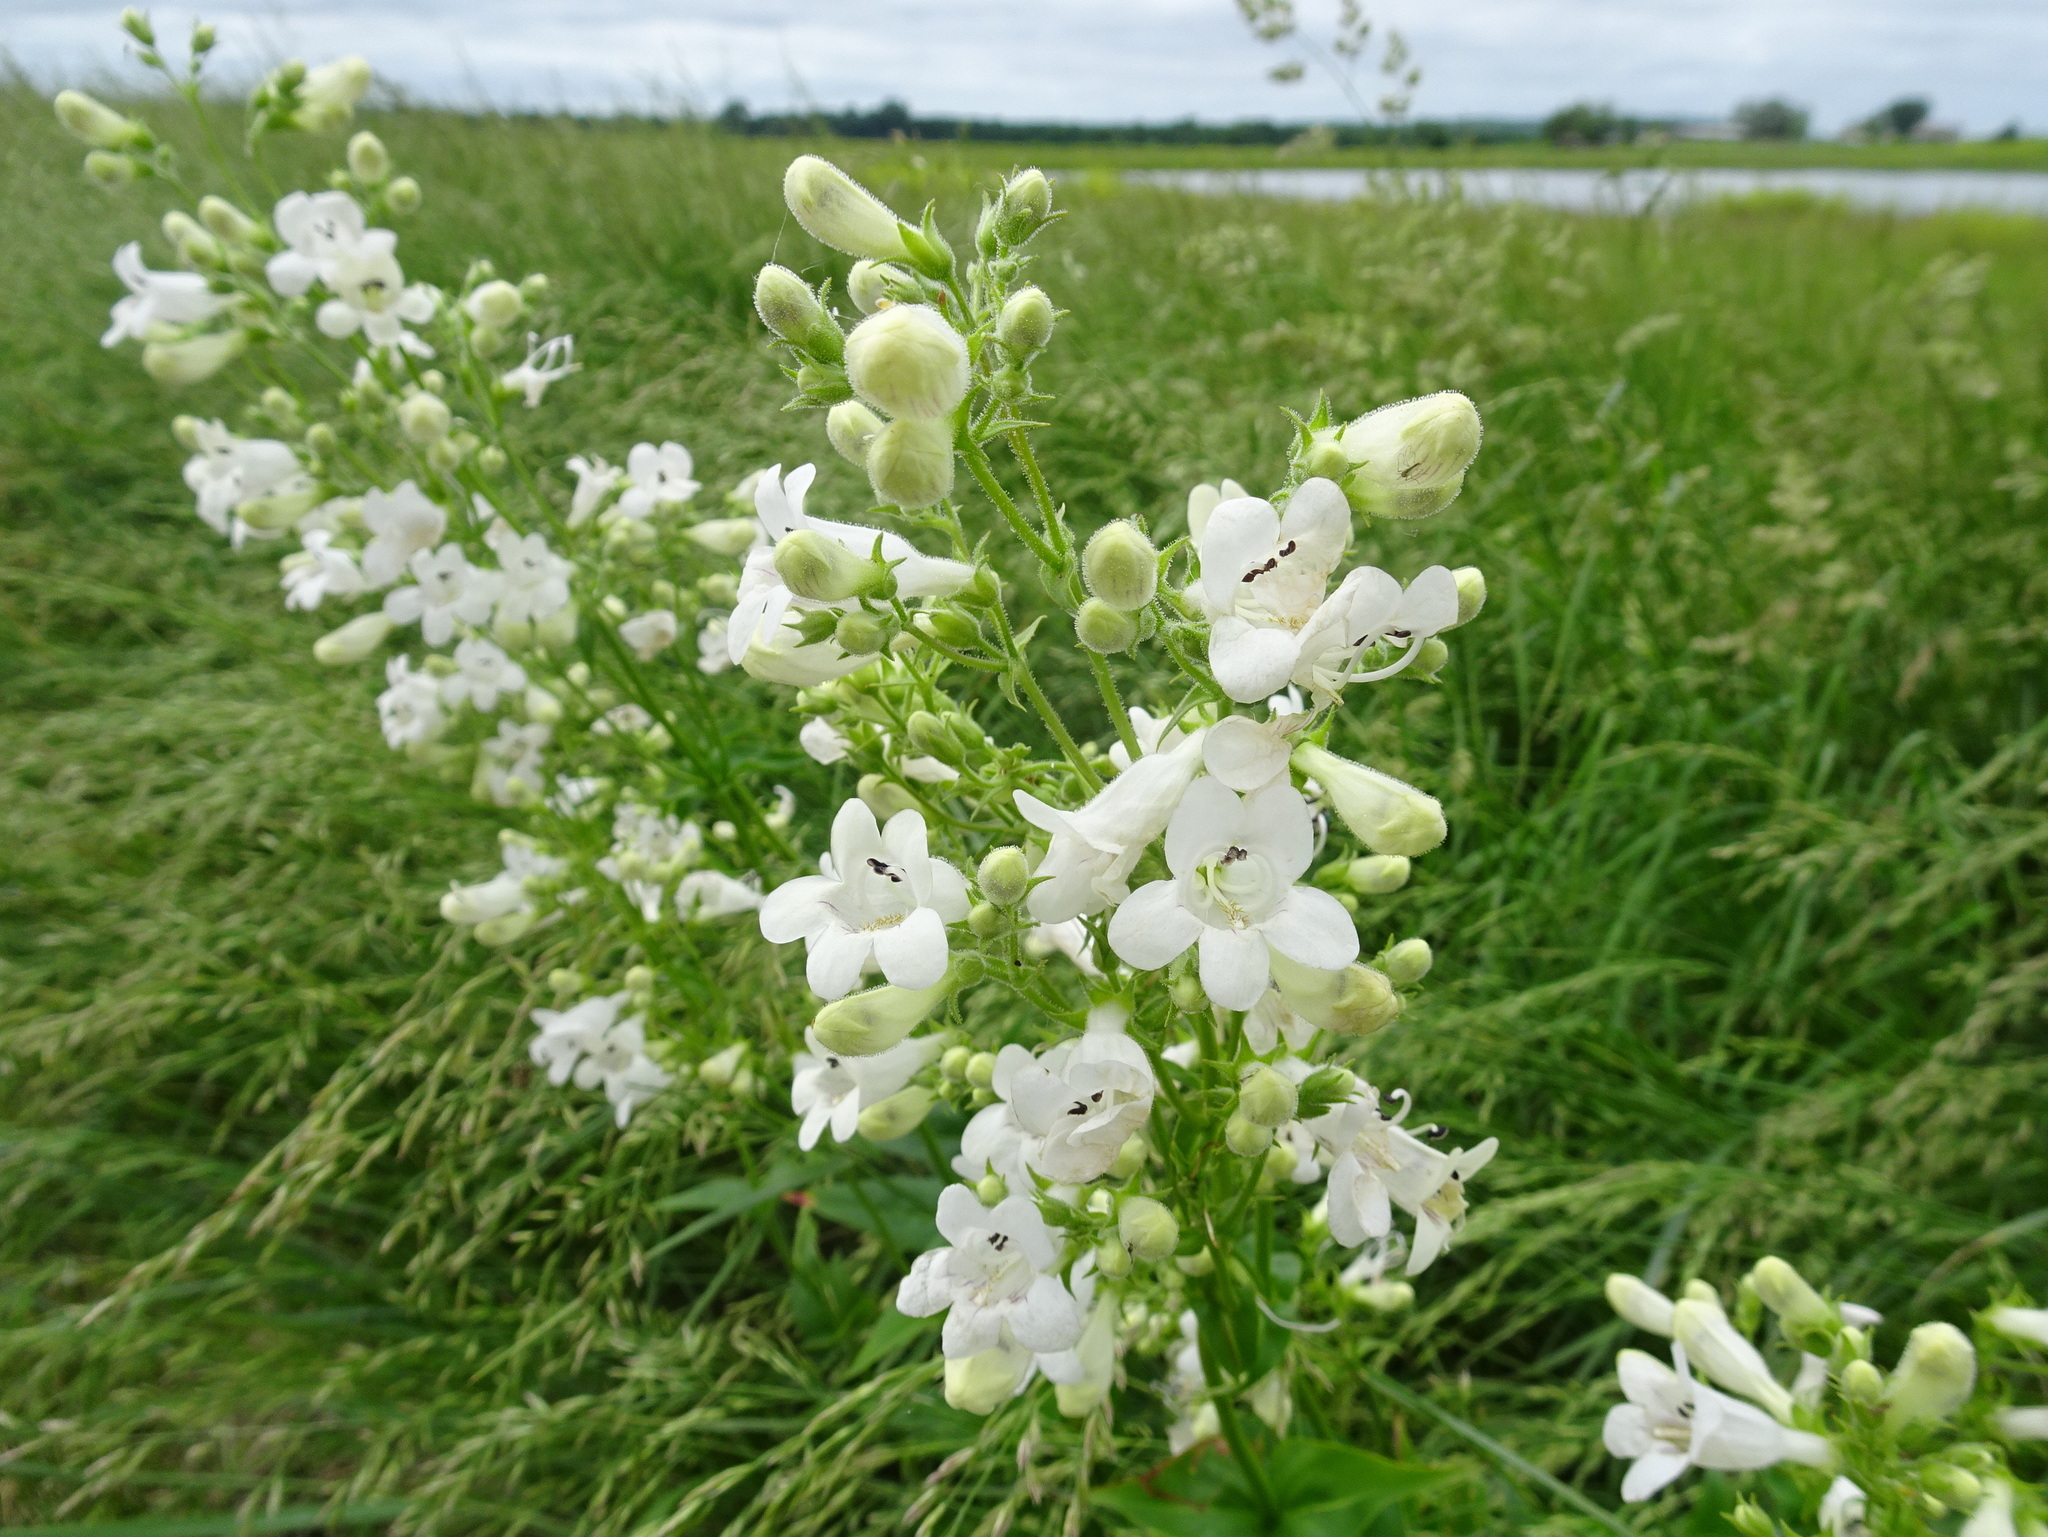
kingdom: Plantae
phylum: Tracheophyta
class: Magnoliopsida
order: Lamiales
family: Plantaginaceae
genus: Penstemon
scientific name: Penstemon digitalis
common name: Foxglove beardtongue
